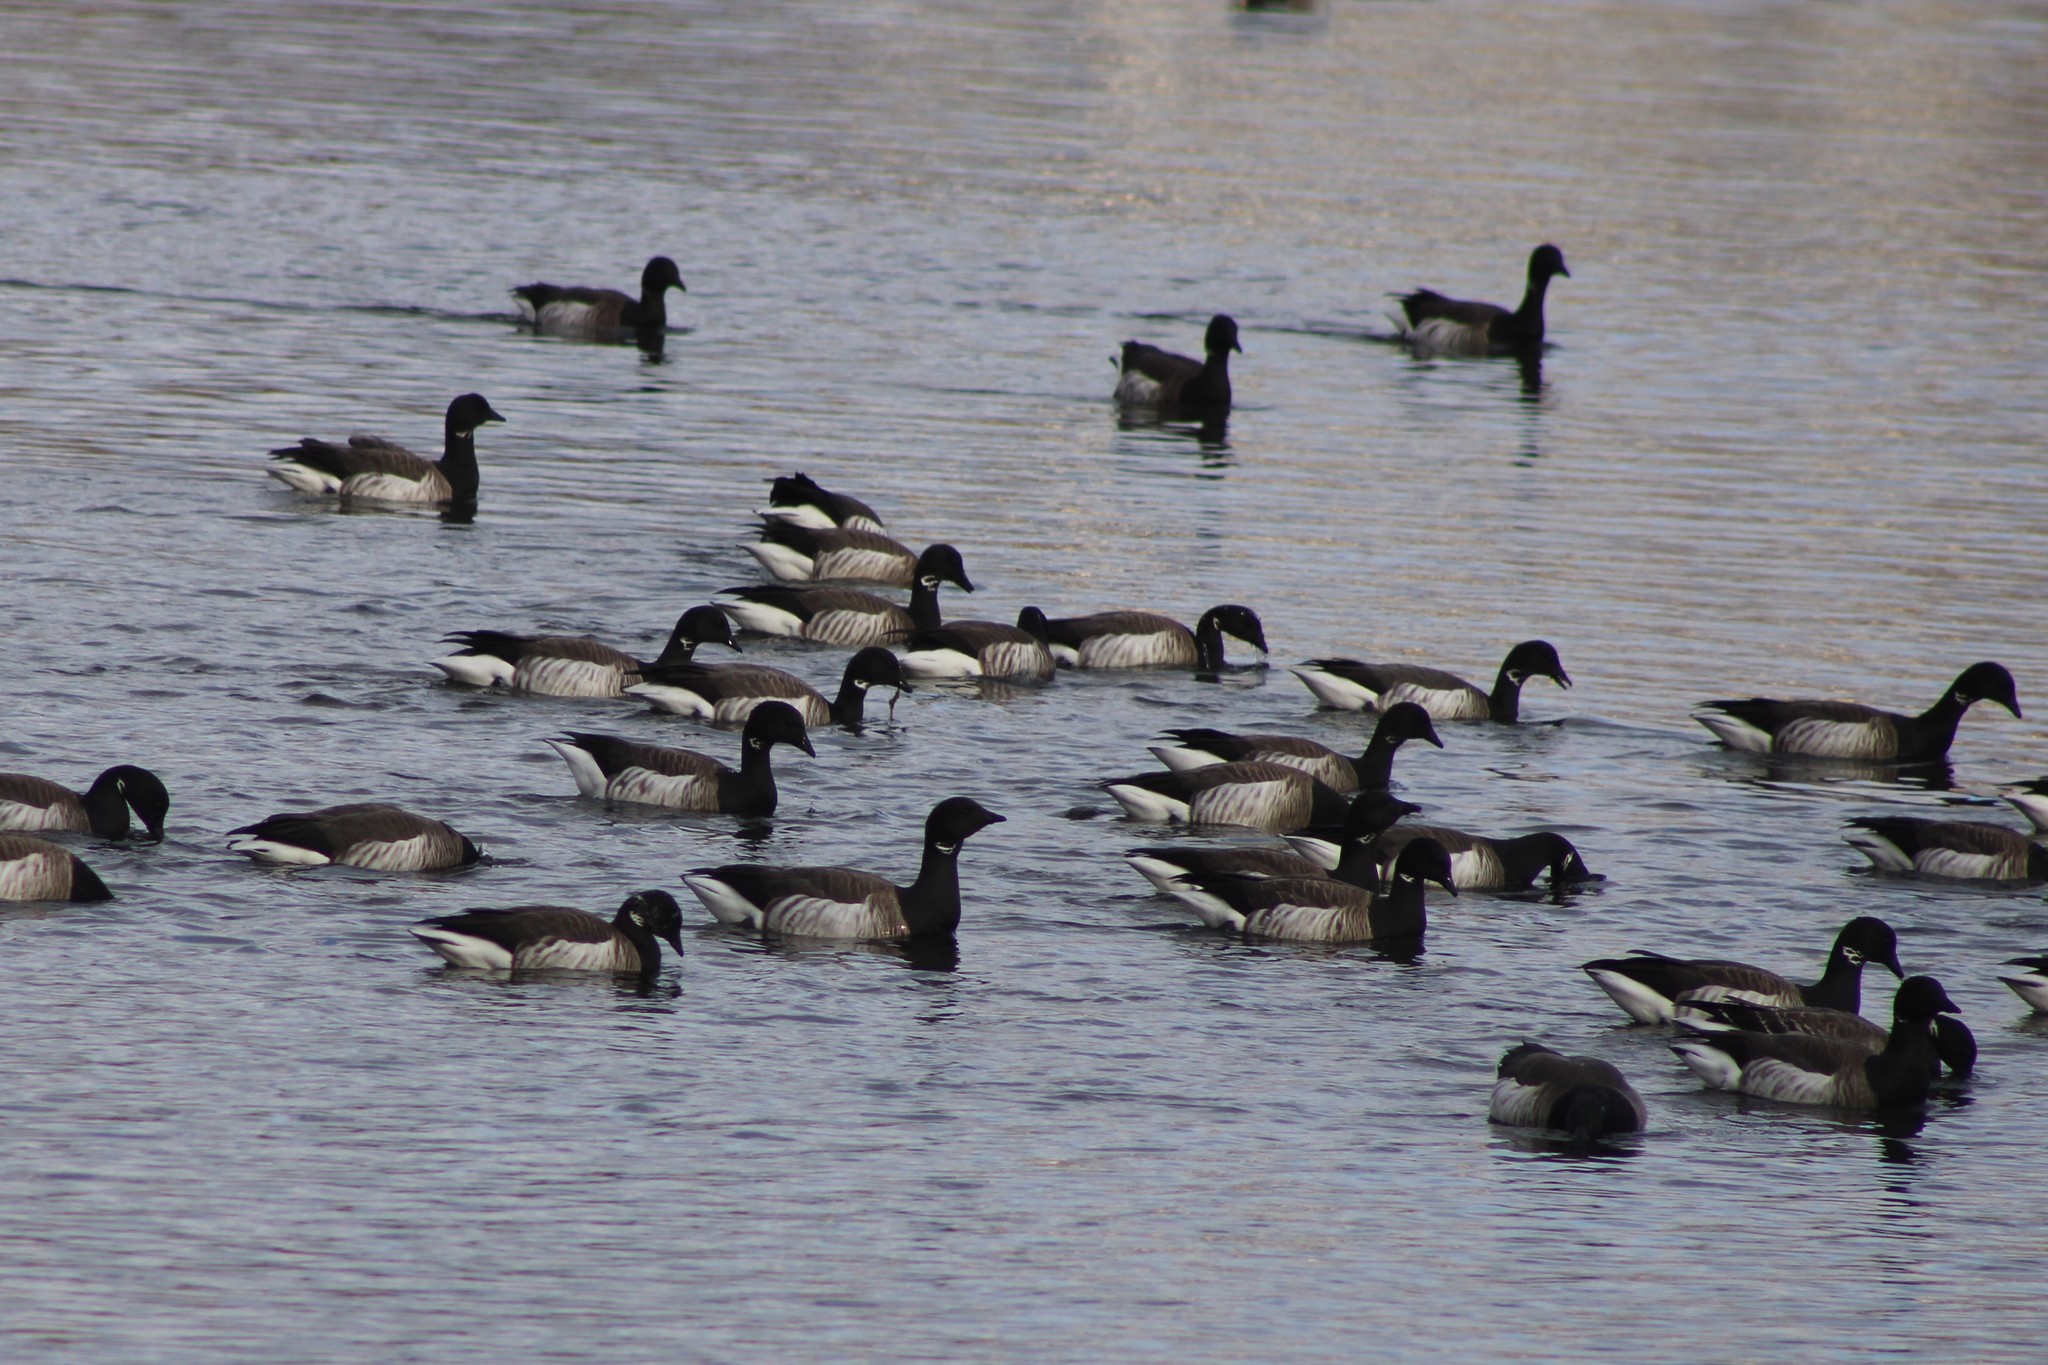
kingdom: Animalia
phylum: Chordata
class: Aves
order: Anseriformes
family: Anatidae
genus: Branta
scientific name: Branta bernicla
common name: Brant goose
